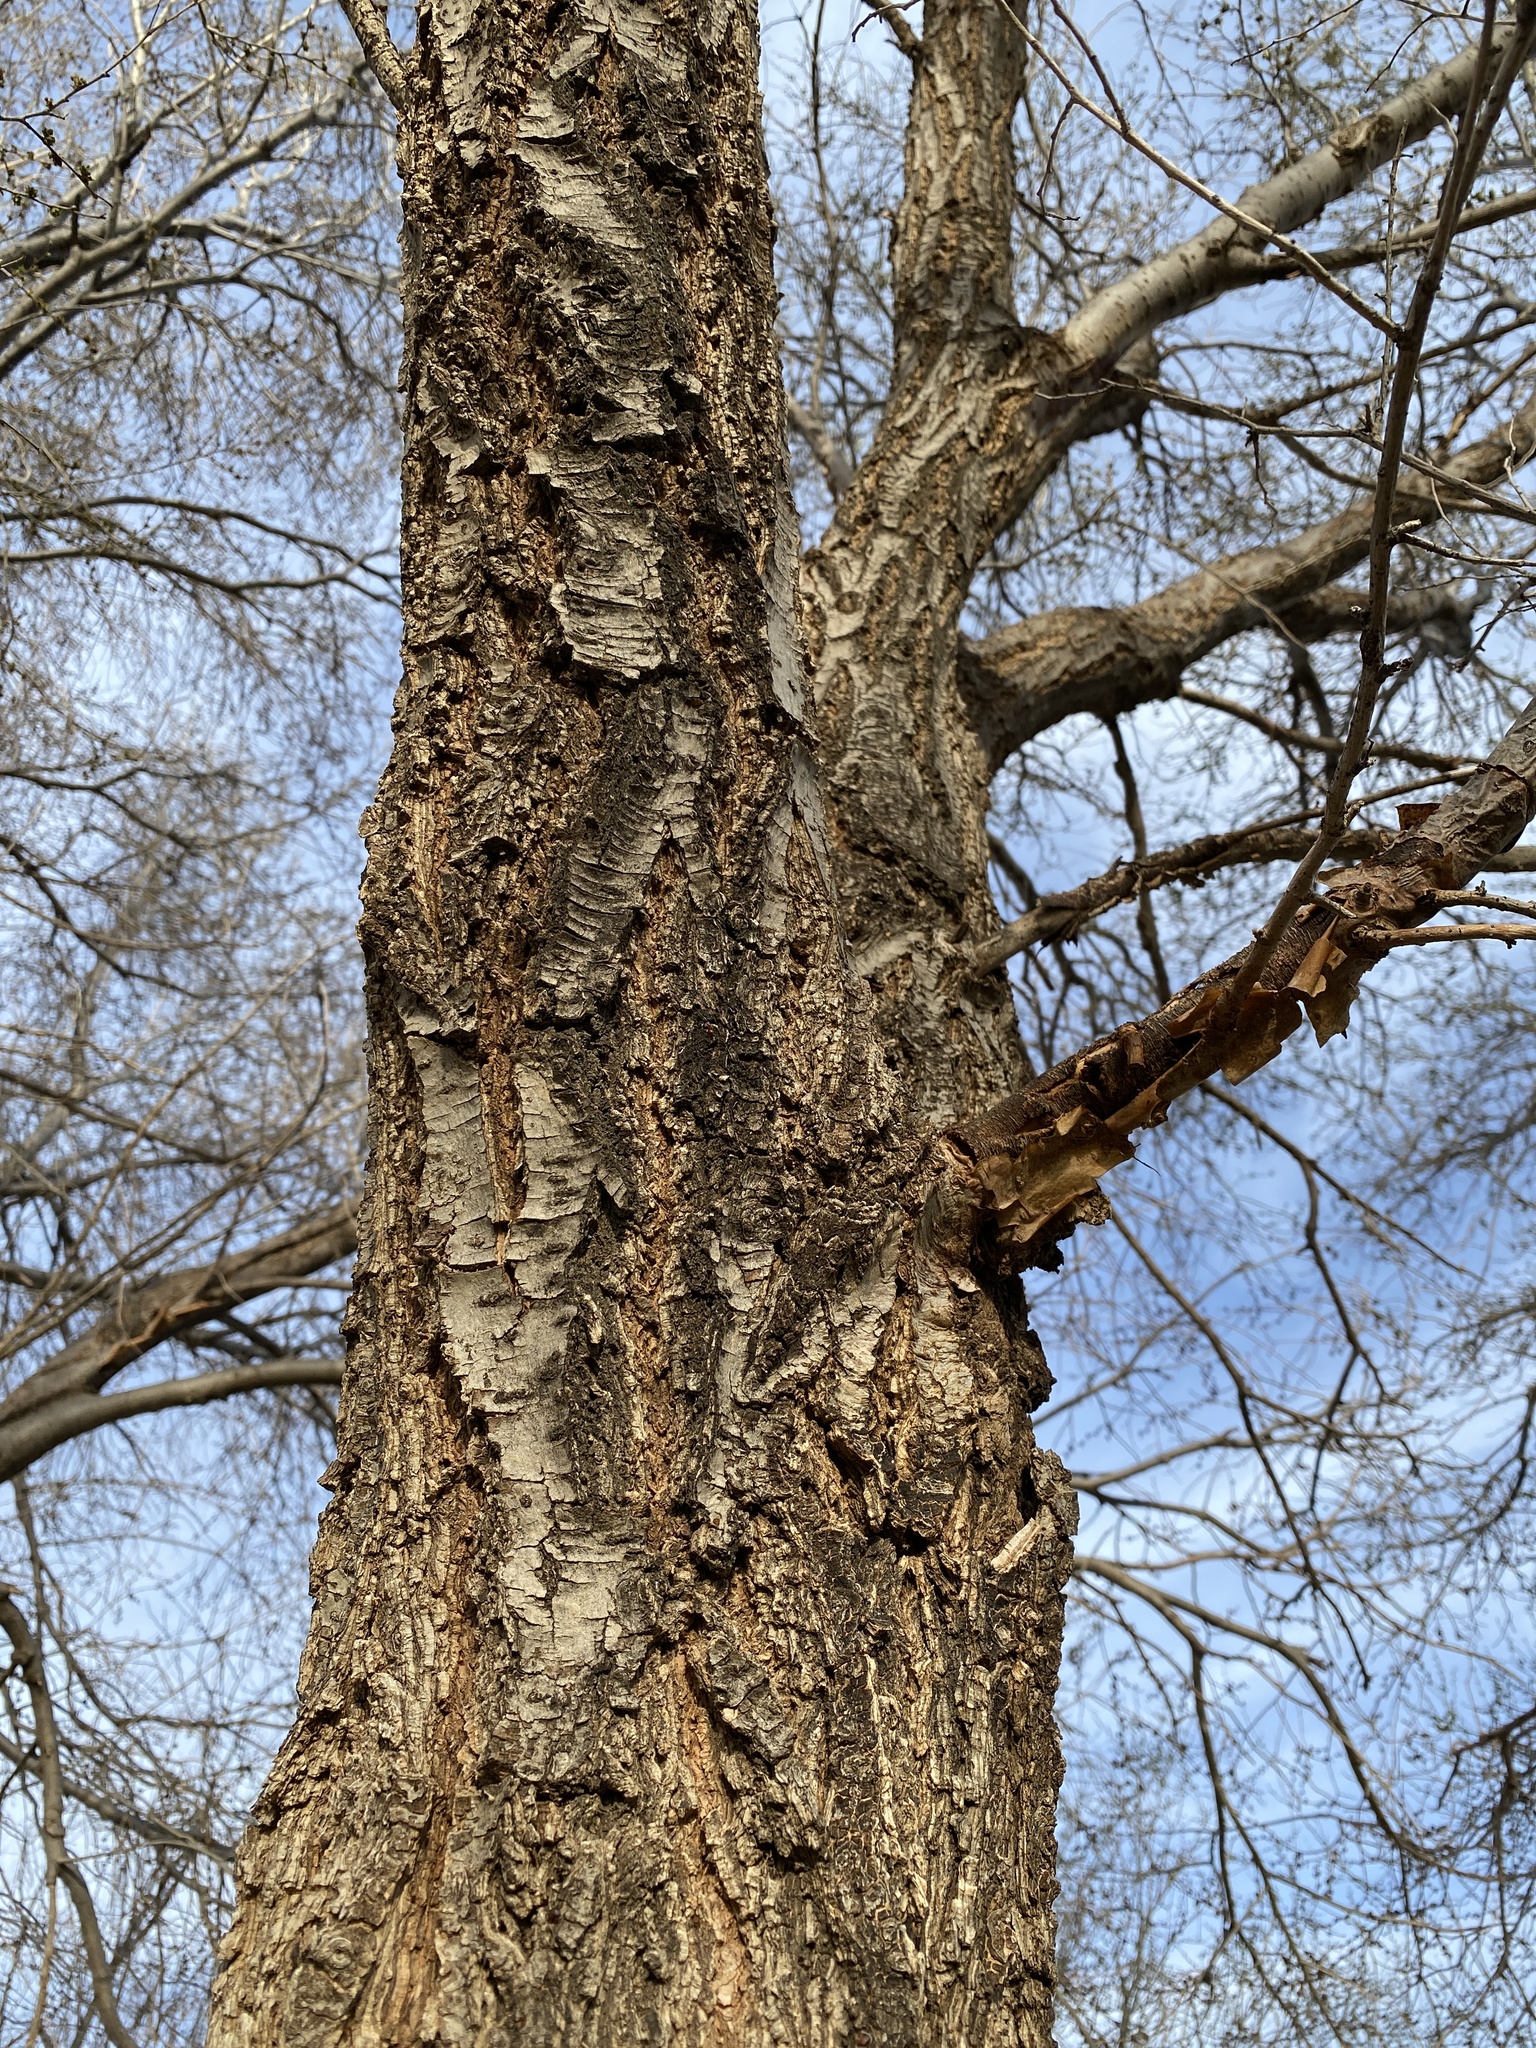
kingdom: Plantae
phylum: Tracheophyta
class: Magnoliopsida
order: Rosales
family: Ulmaceae
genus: Ulmus
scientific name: Ulmus pumila
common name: Siberian elm
